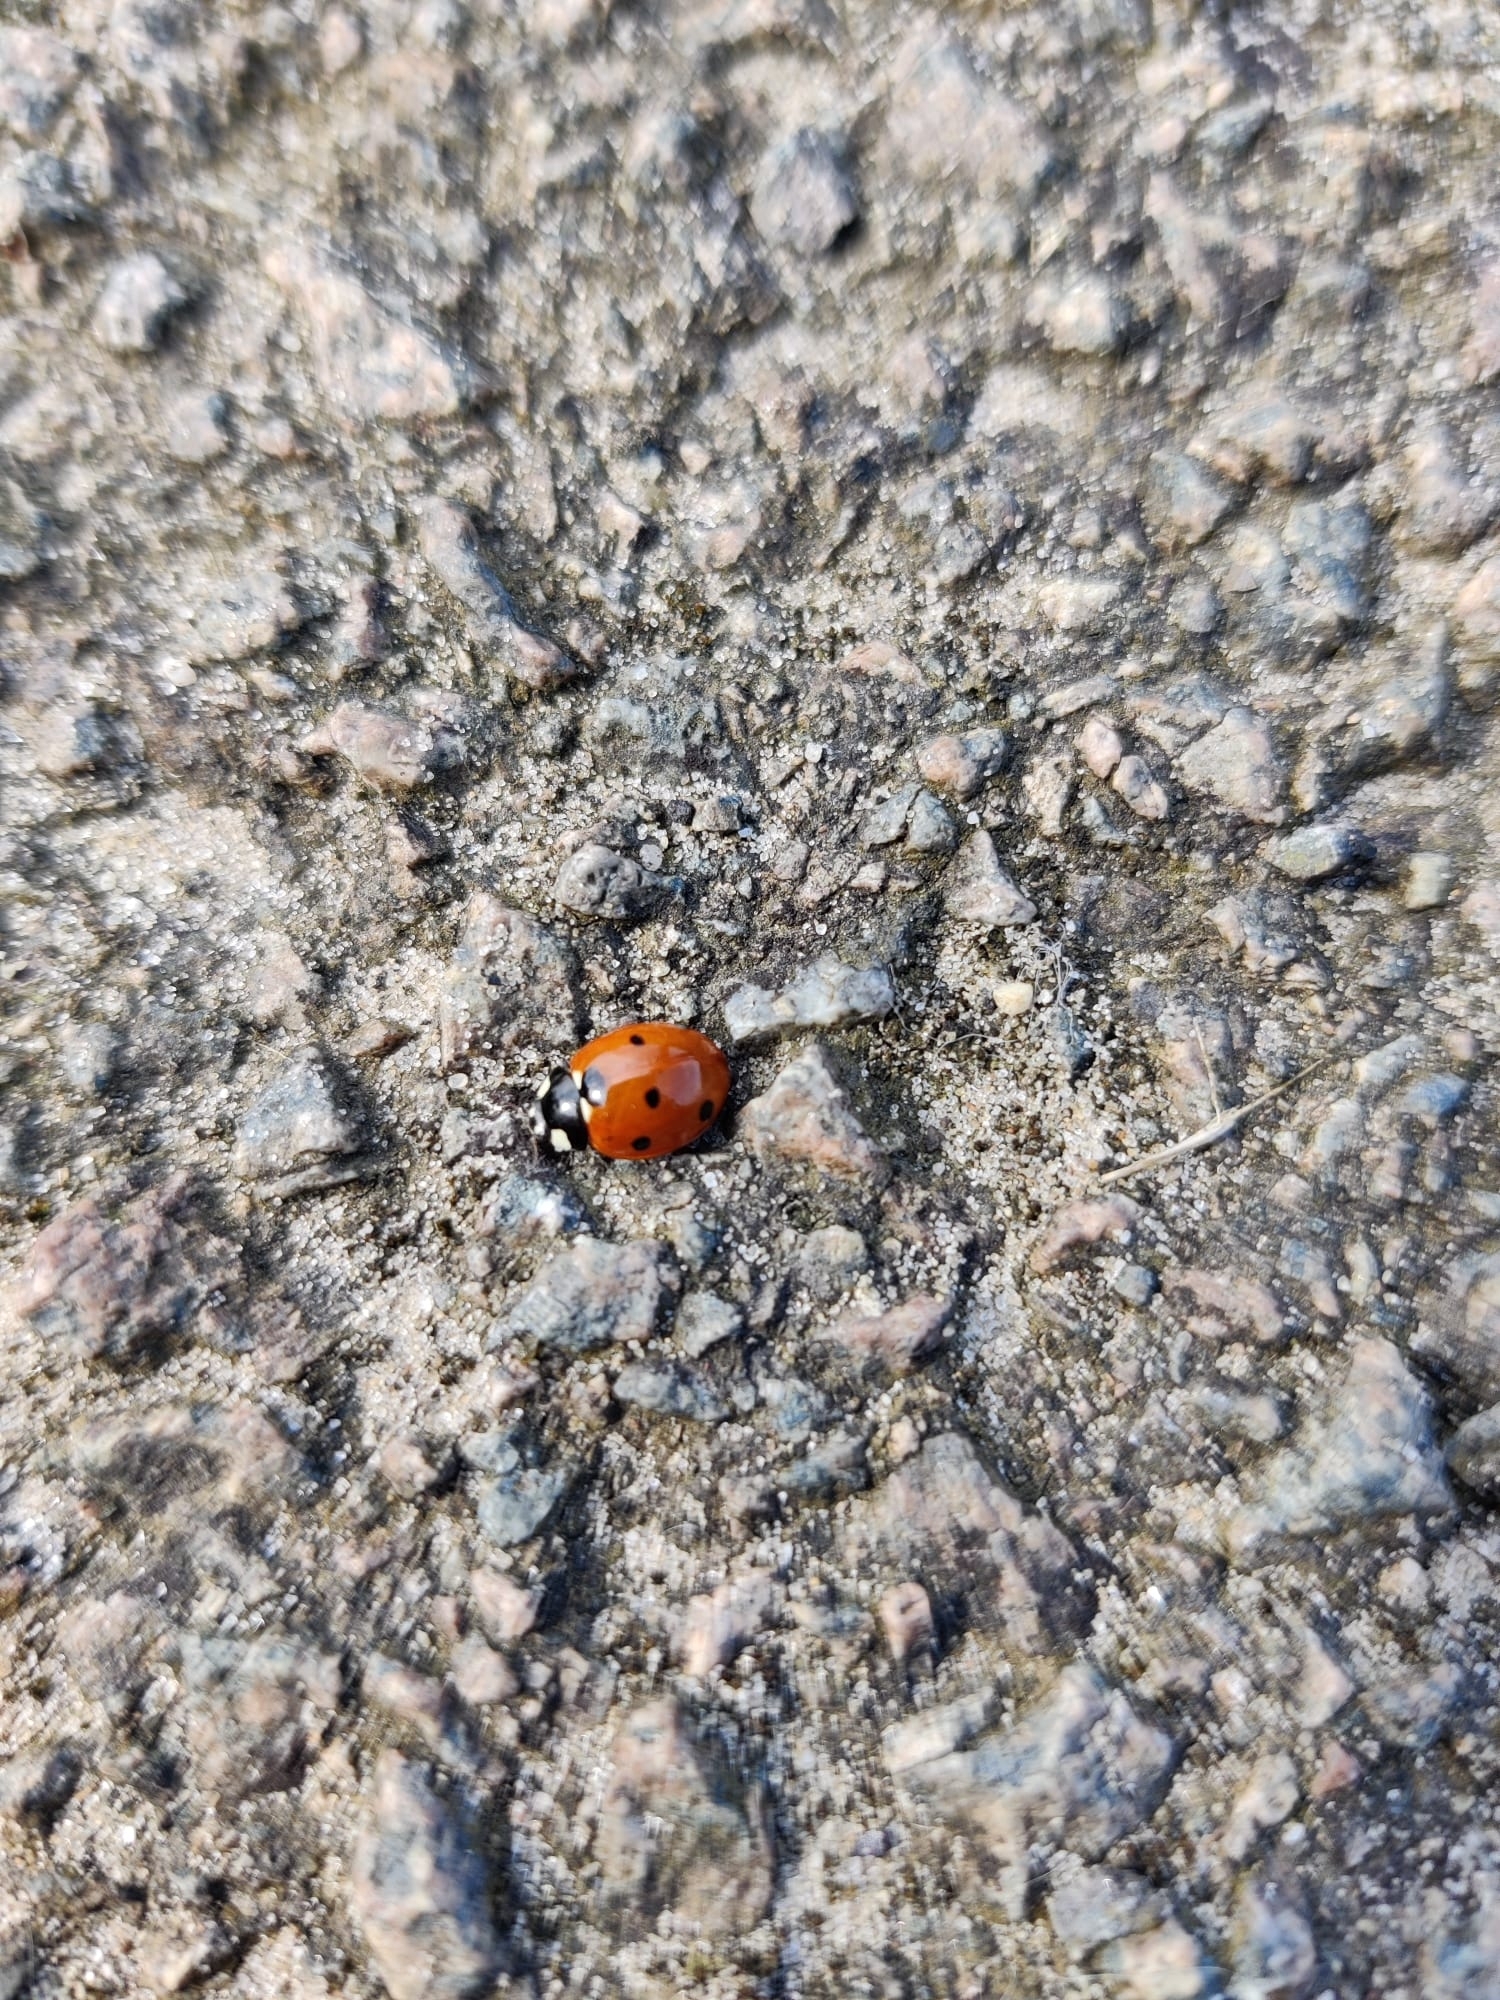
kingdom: Animalia
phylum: Arthropoda
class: Insecta
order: Coleoptera
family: Coccinellidae
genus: Coccinella
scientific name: Coccinella septempunctata
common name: Sevenspotted lady beetle
